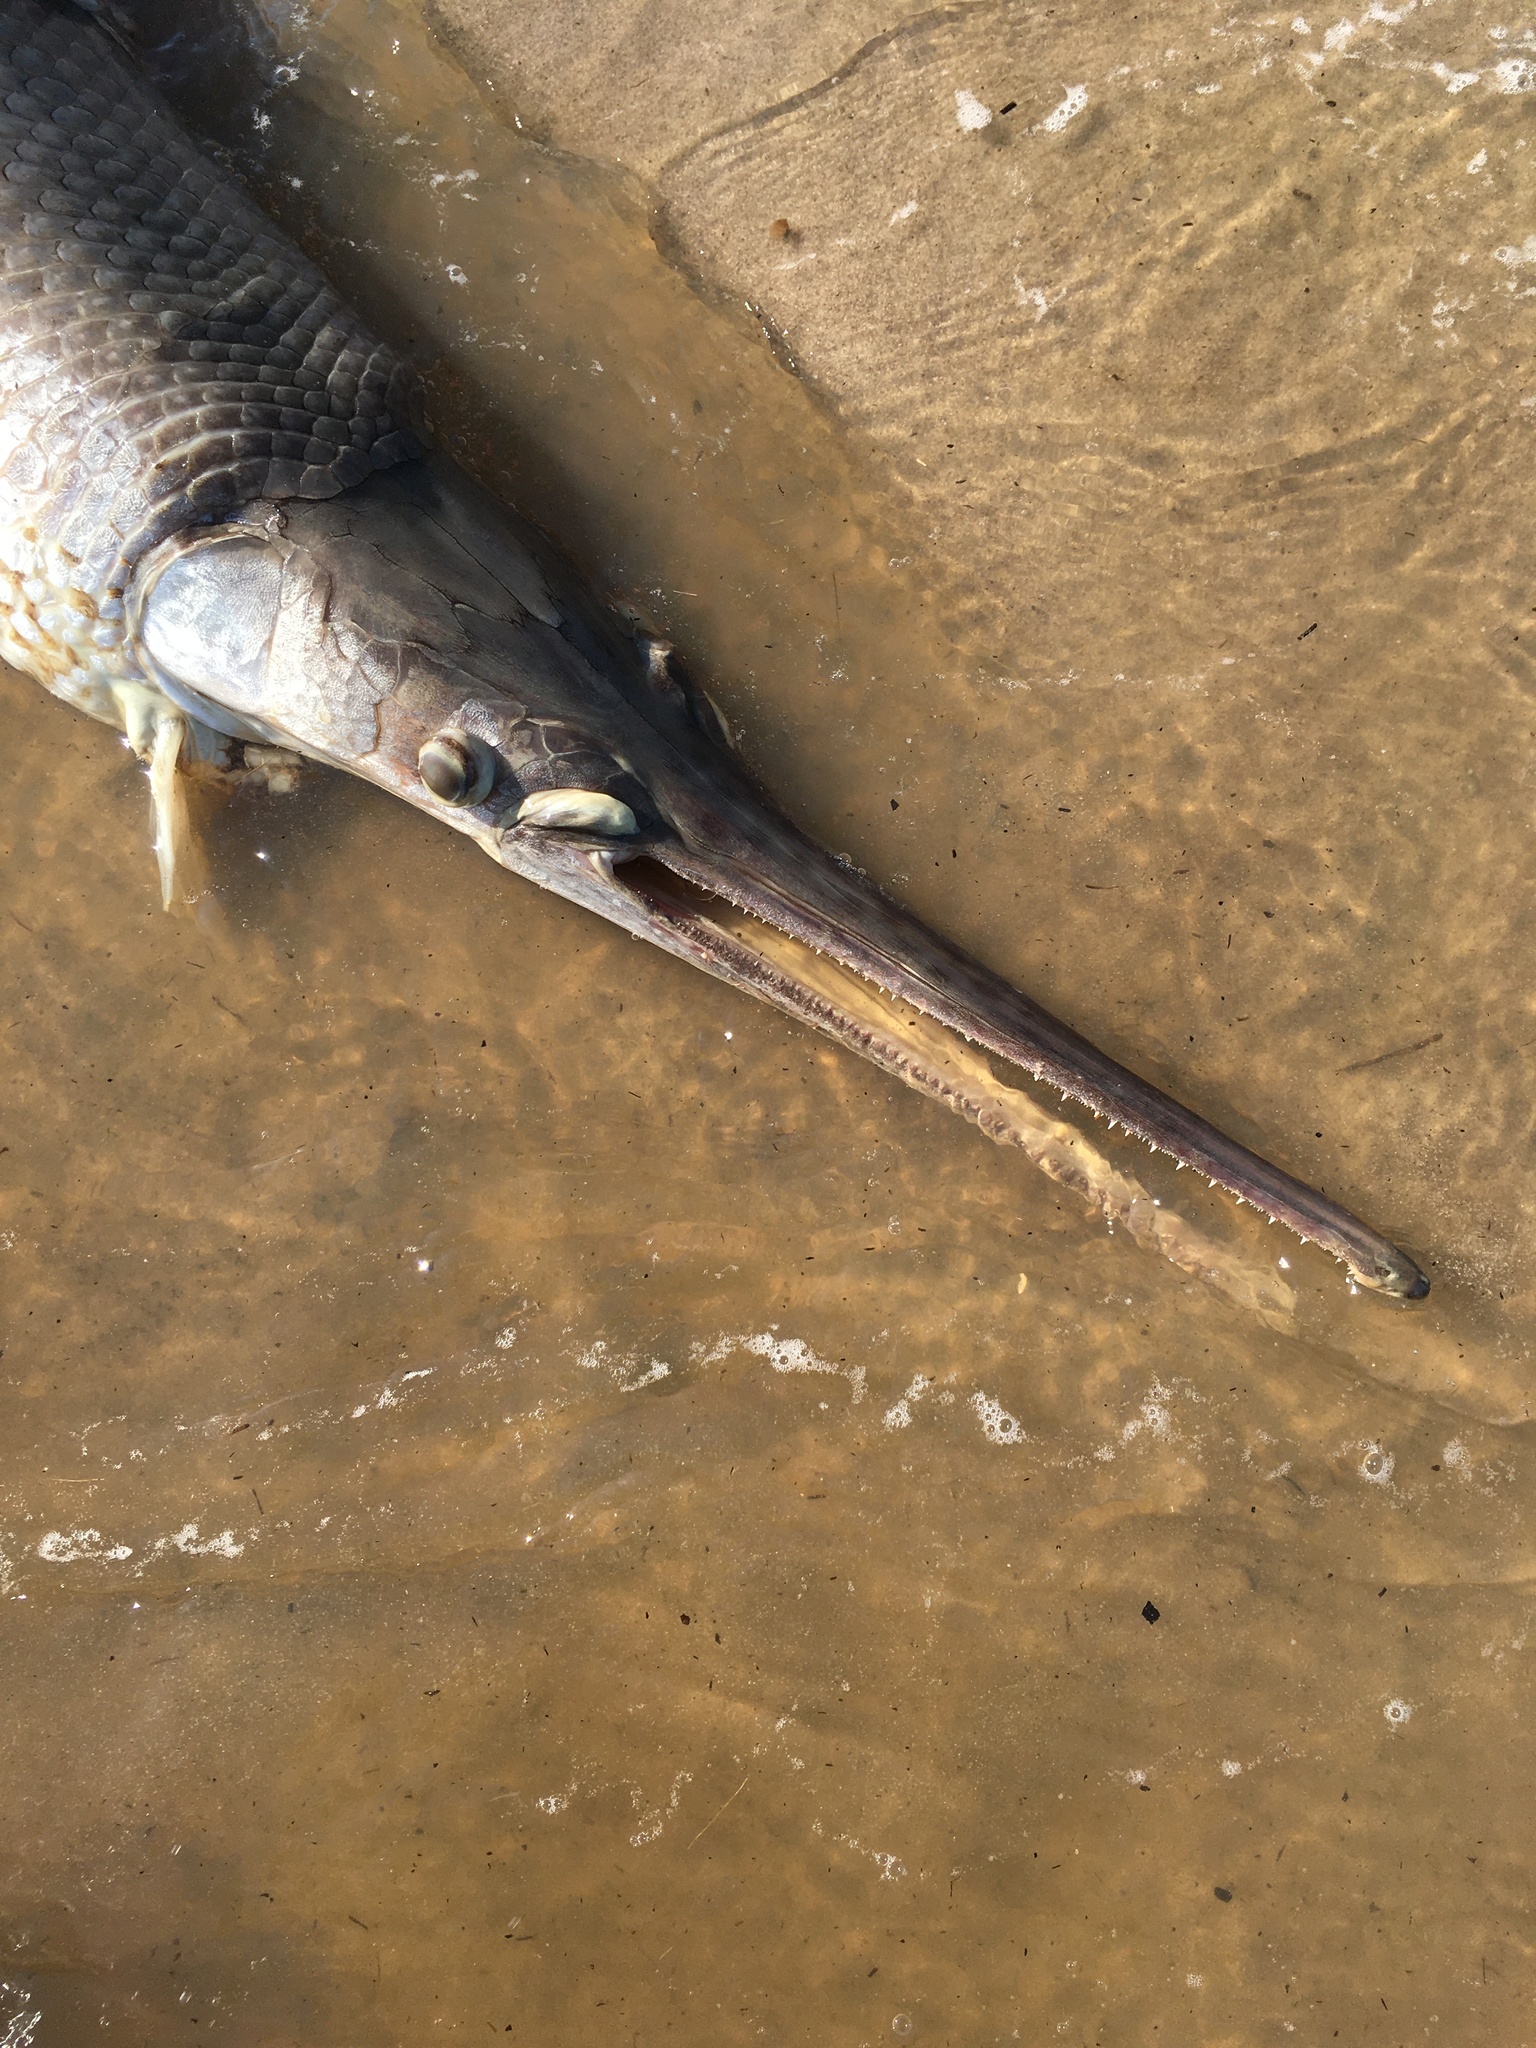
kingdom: Animalia
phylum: Chordata
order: Lepisosteiformes
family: Lepisosteidae
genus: Lepisosteus
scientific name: Lepisosteus osseus
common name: Longnose gar
